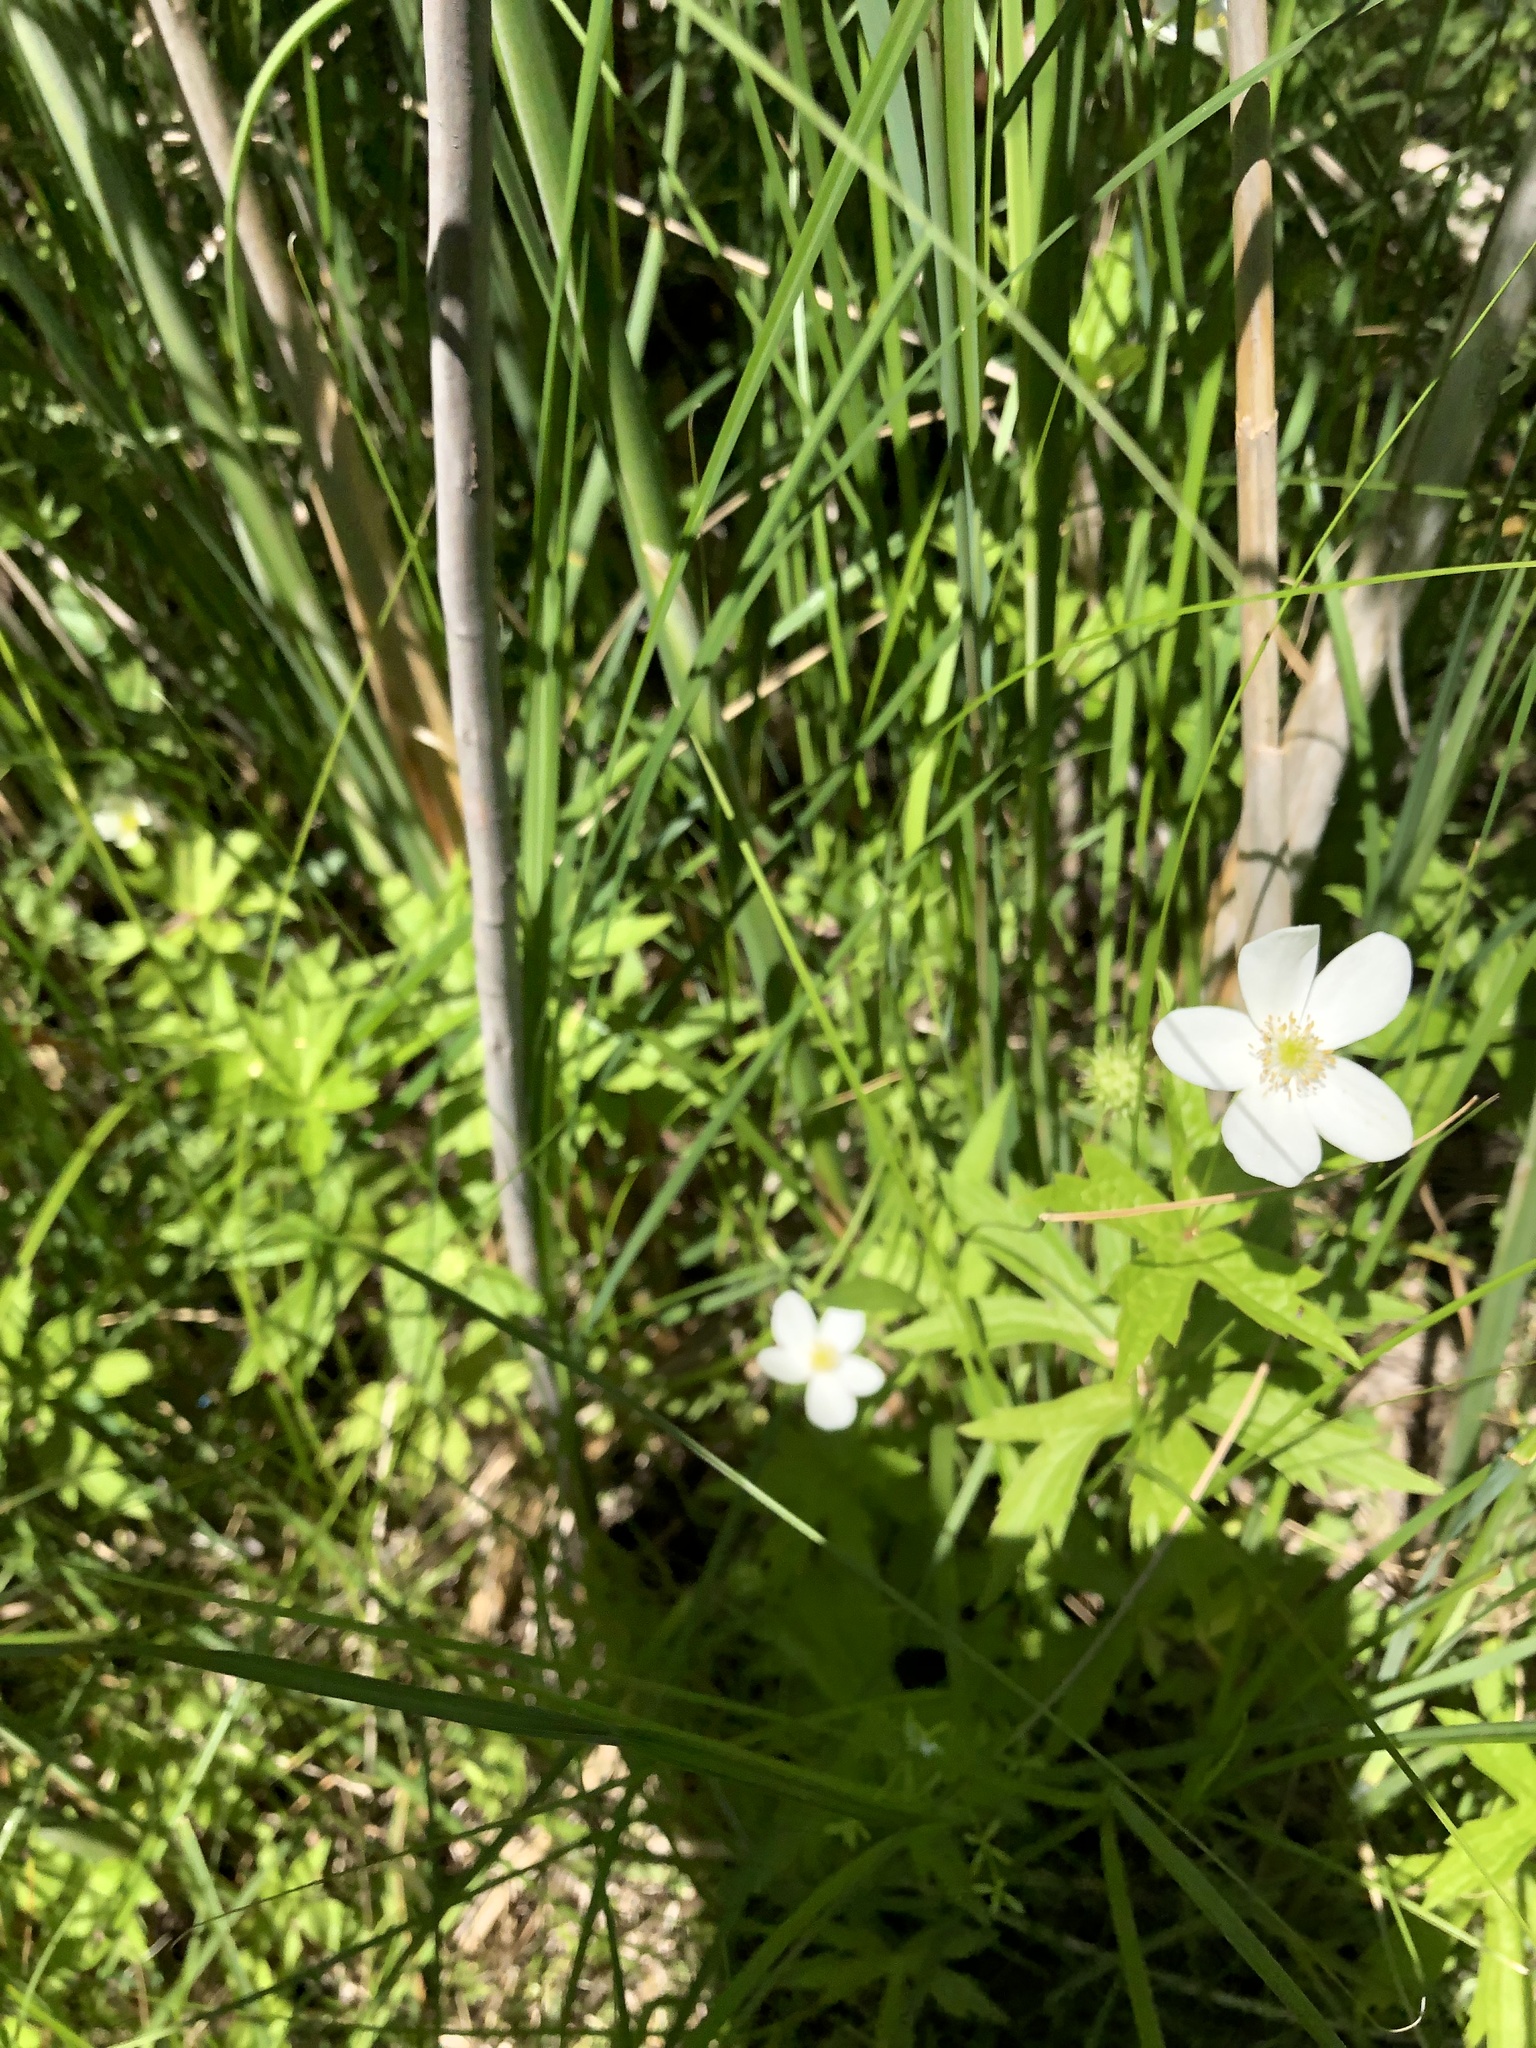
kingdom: Plantae
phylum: Tracheophyta
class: Magnoliopsida
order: Ranunculales
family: Ranunculaceae
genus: Anemonastrum
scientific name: Anemonastrum canadense
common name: Canada anemone
